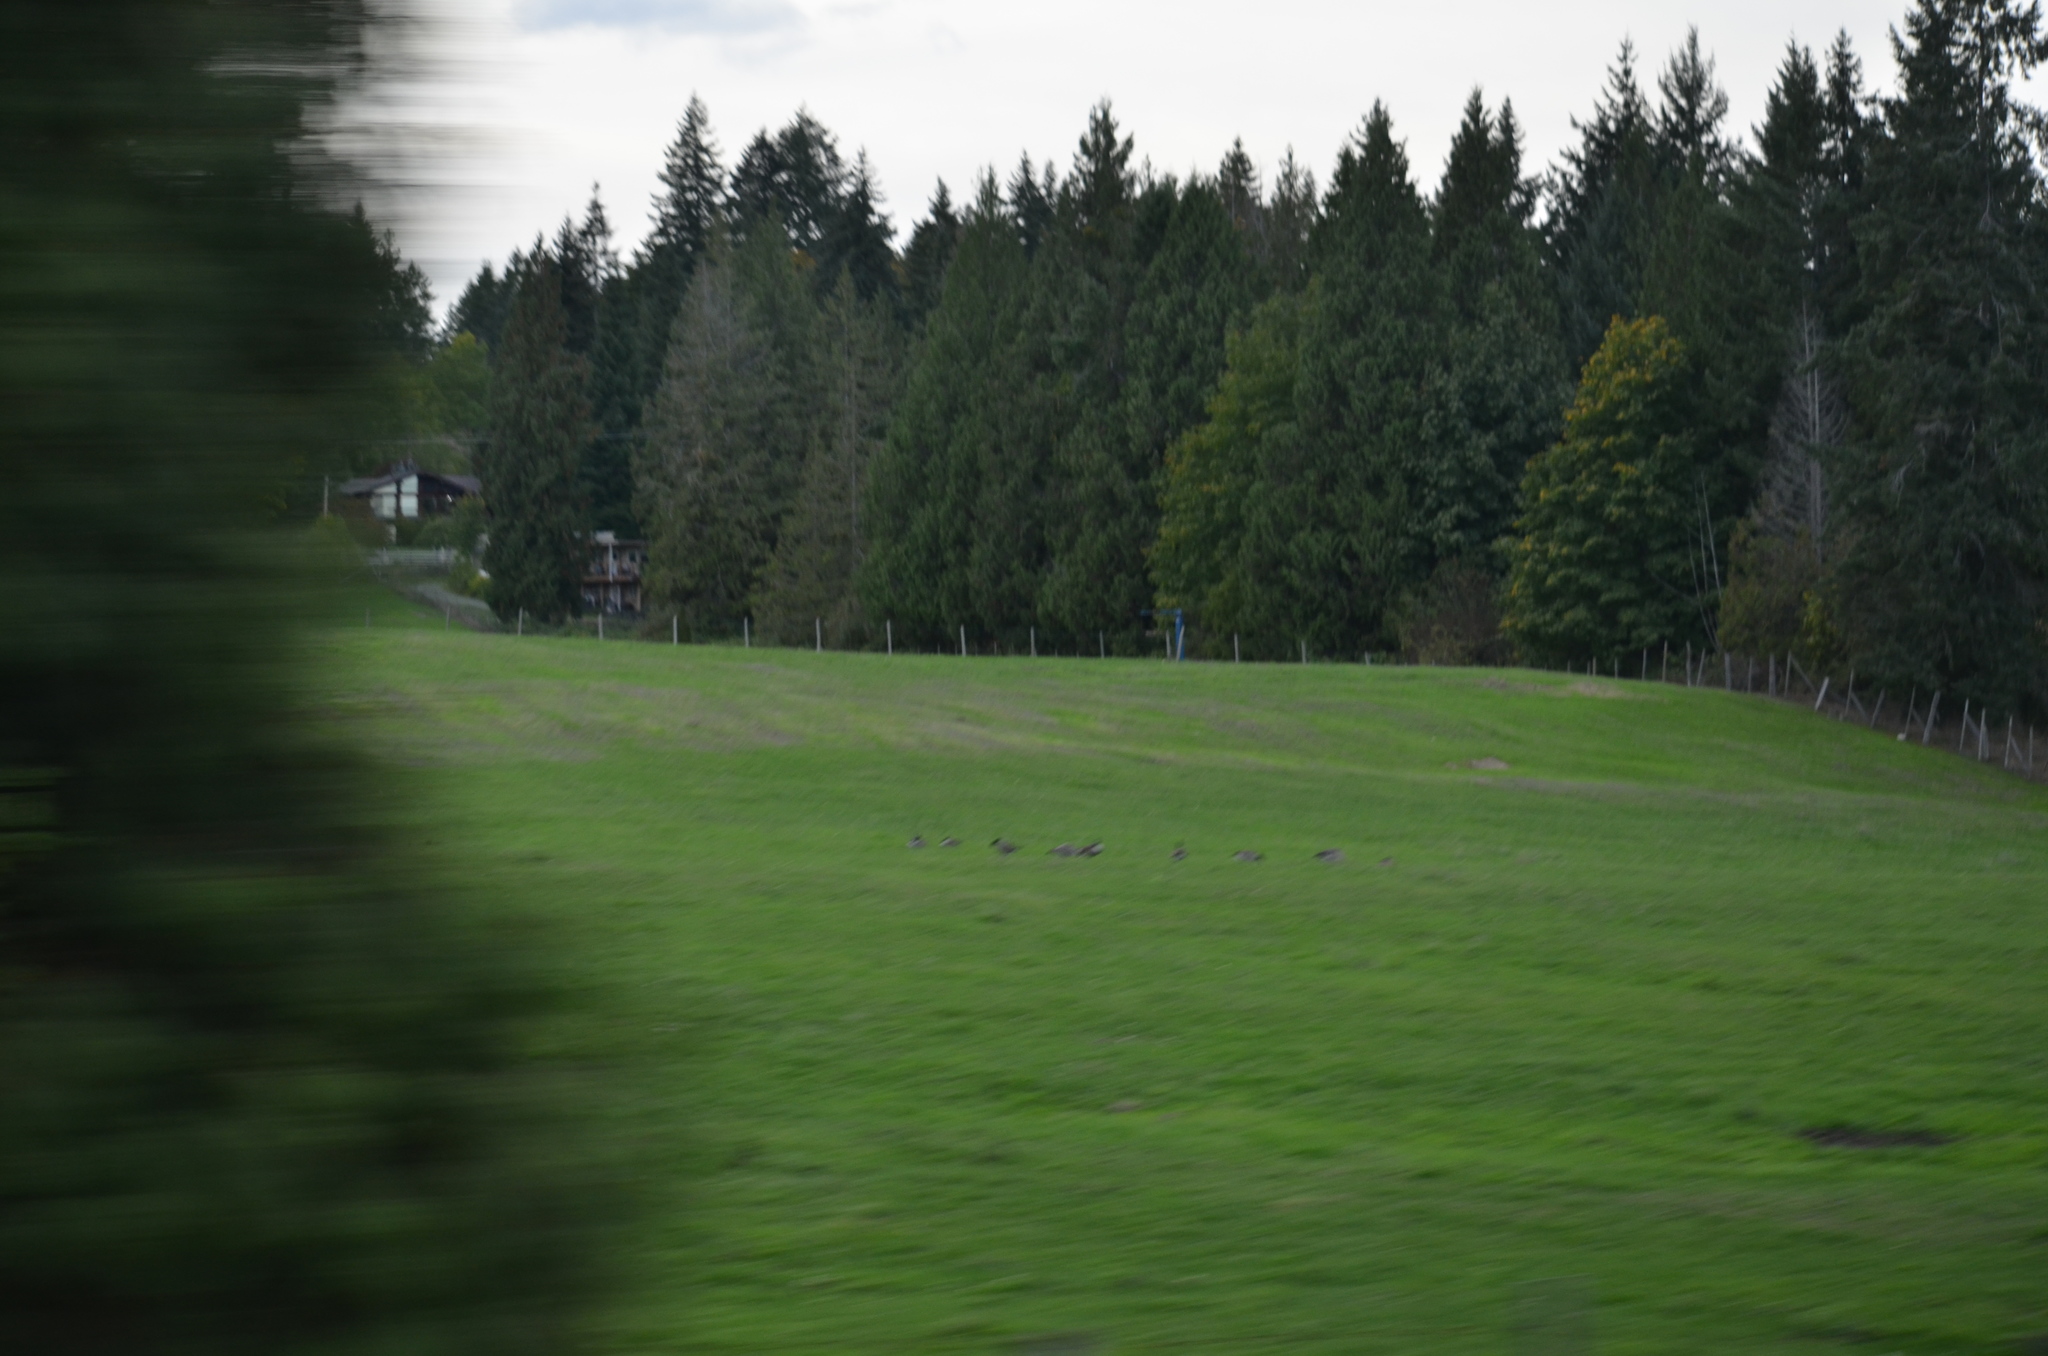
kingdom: Animalia
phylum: Chordata
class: Aves
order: Anseriformes
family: Anatidae
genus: Branta
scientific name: Branta canadensis
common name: Canada goose
